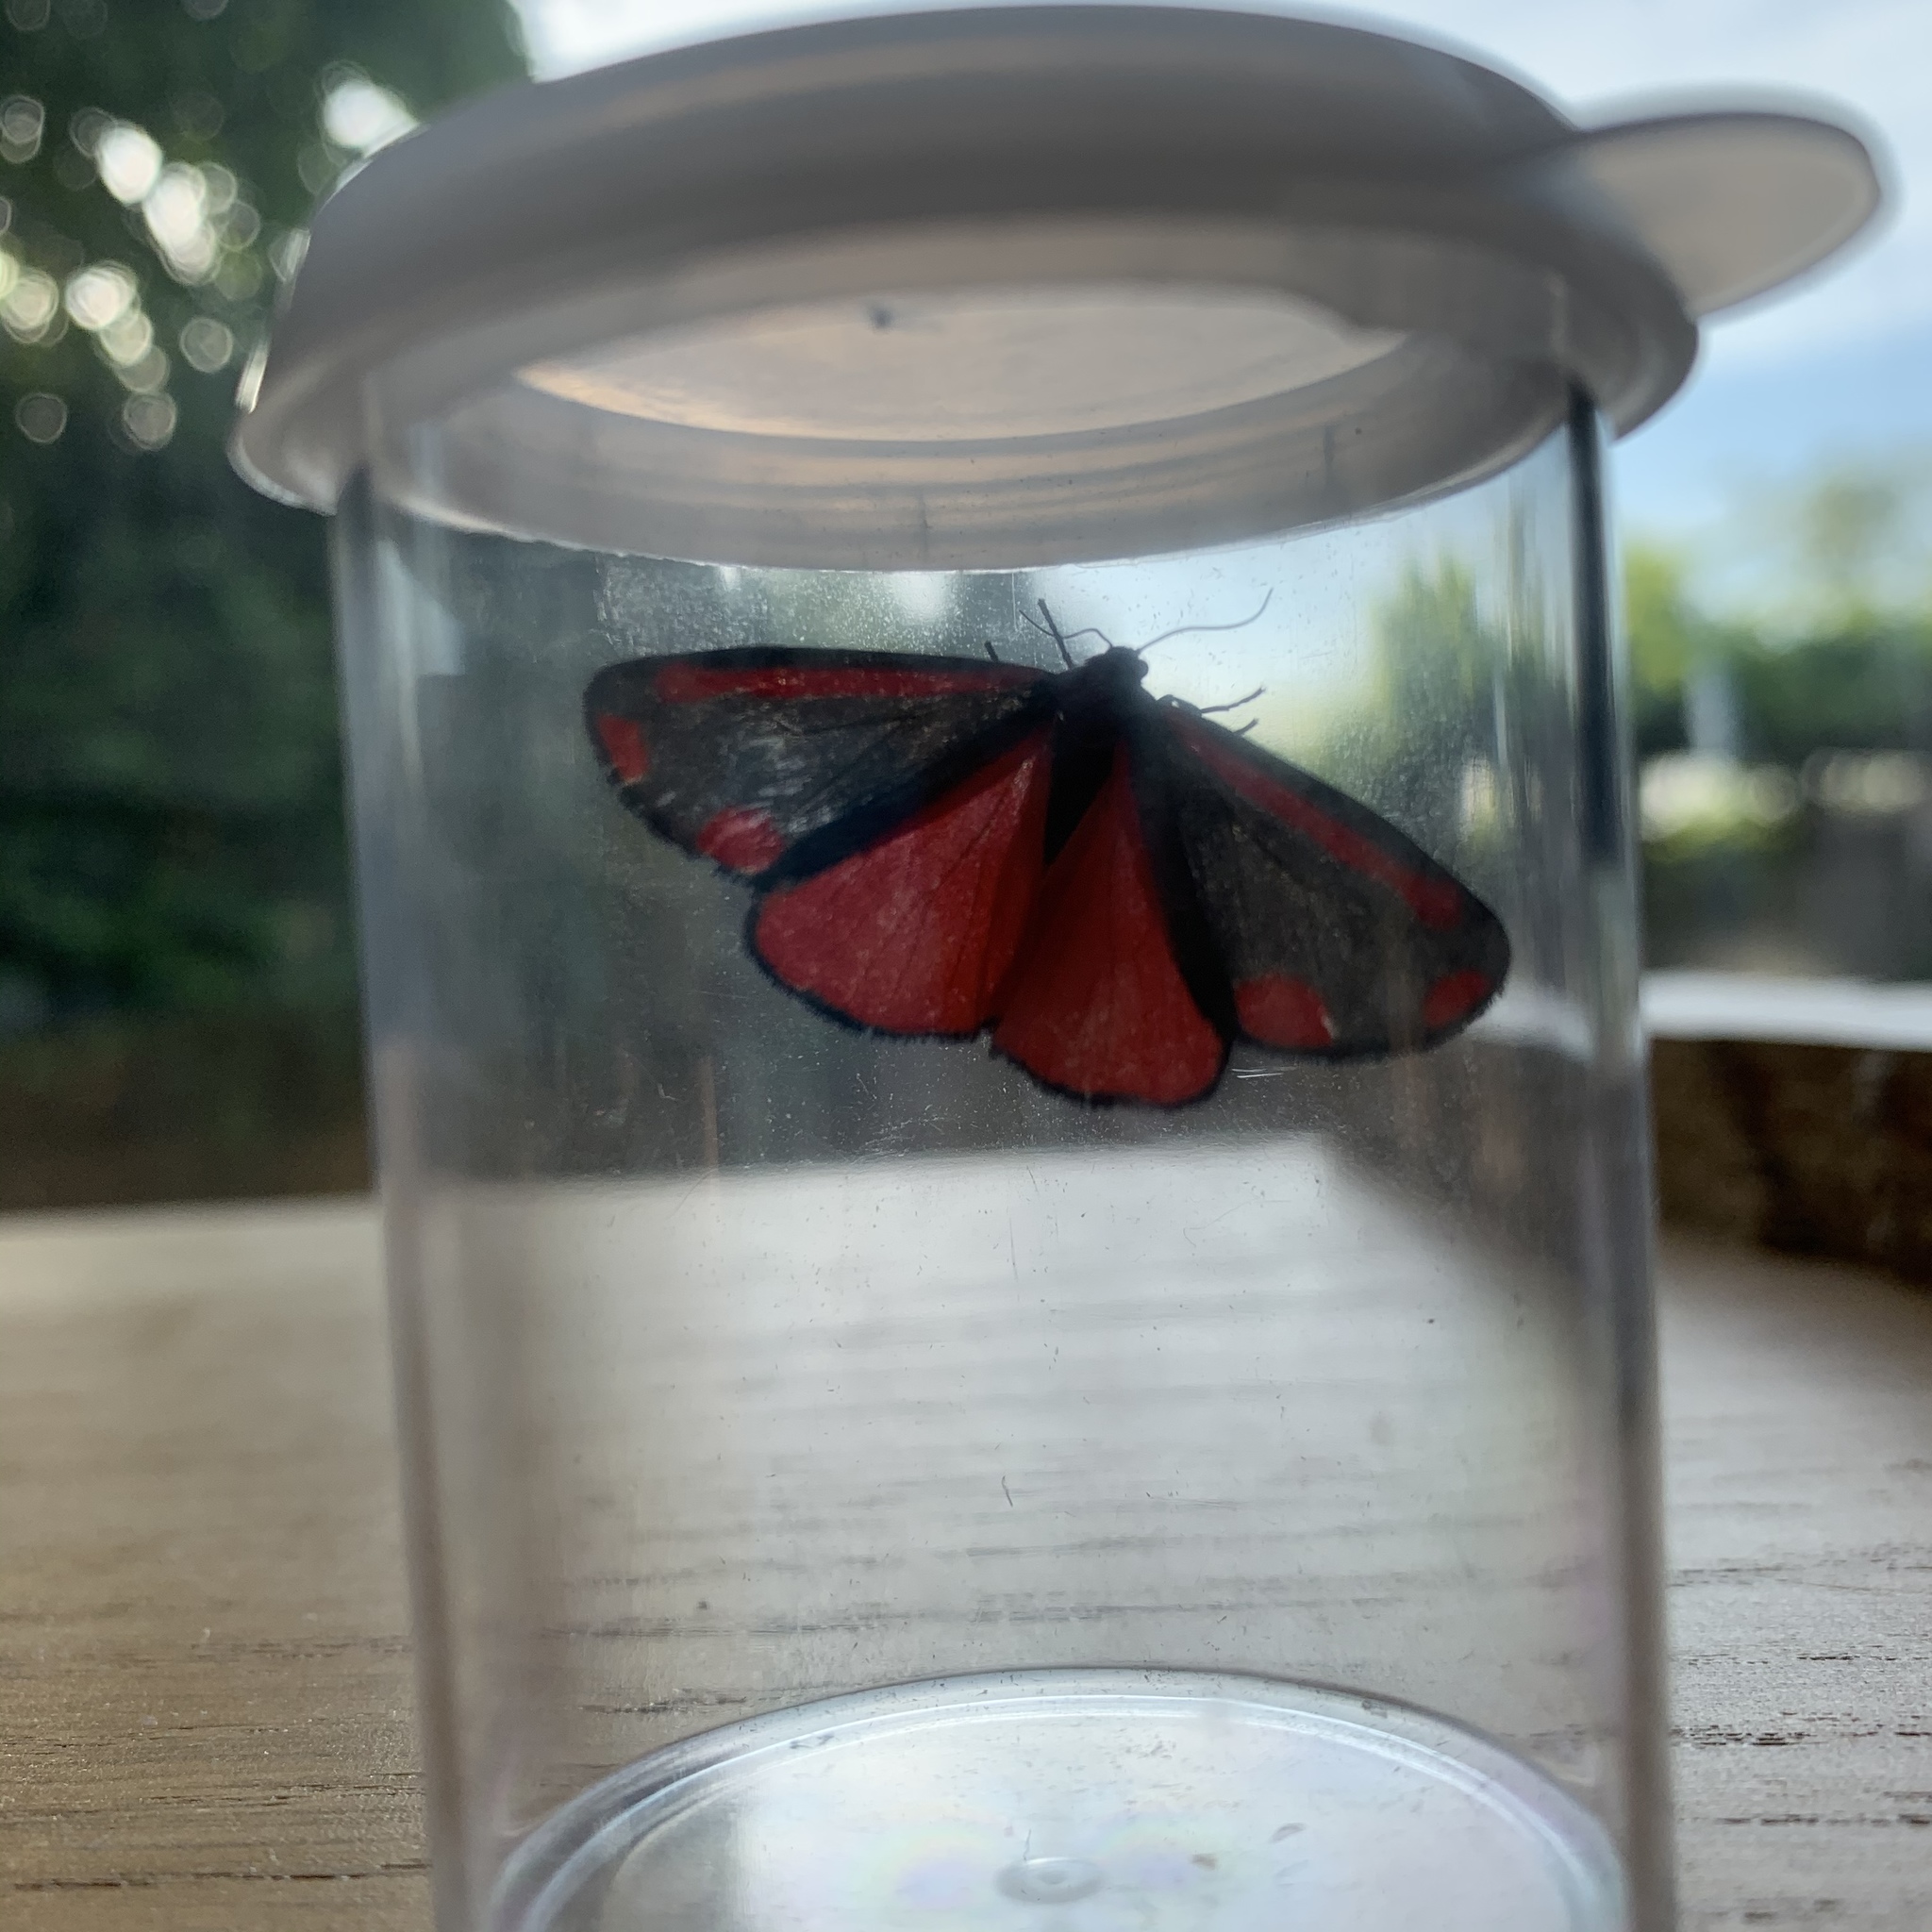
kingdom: Animalia
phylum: Arthropoda
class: Insecta
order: Lepidoptera
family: Erebidae
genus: Tyria
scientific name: Tyria jacobaeae
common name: Cinnabar
